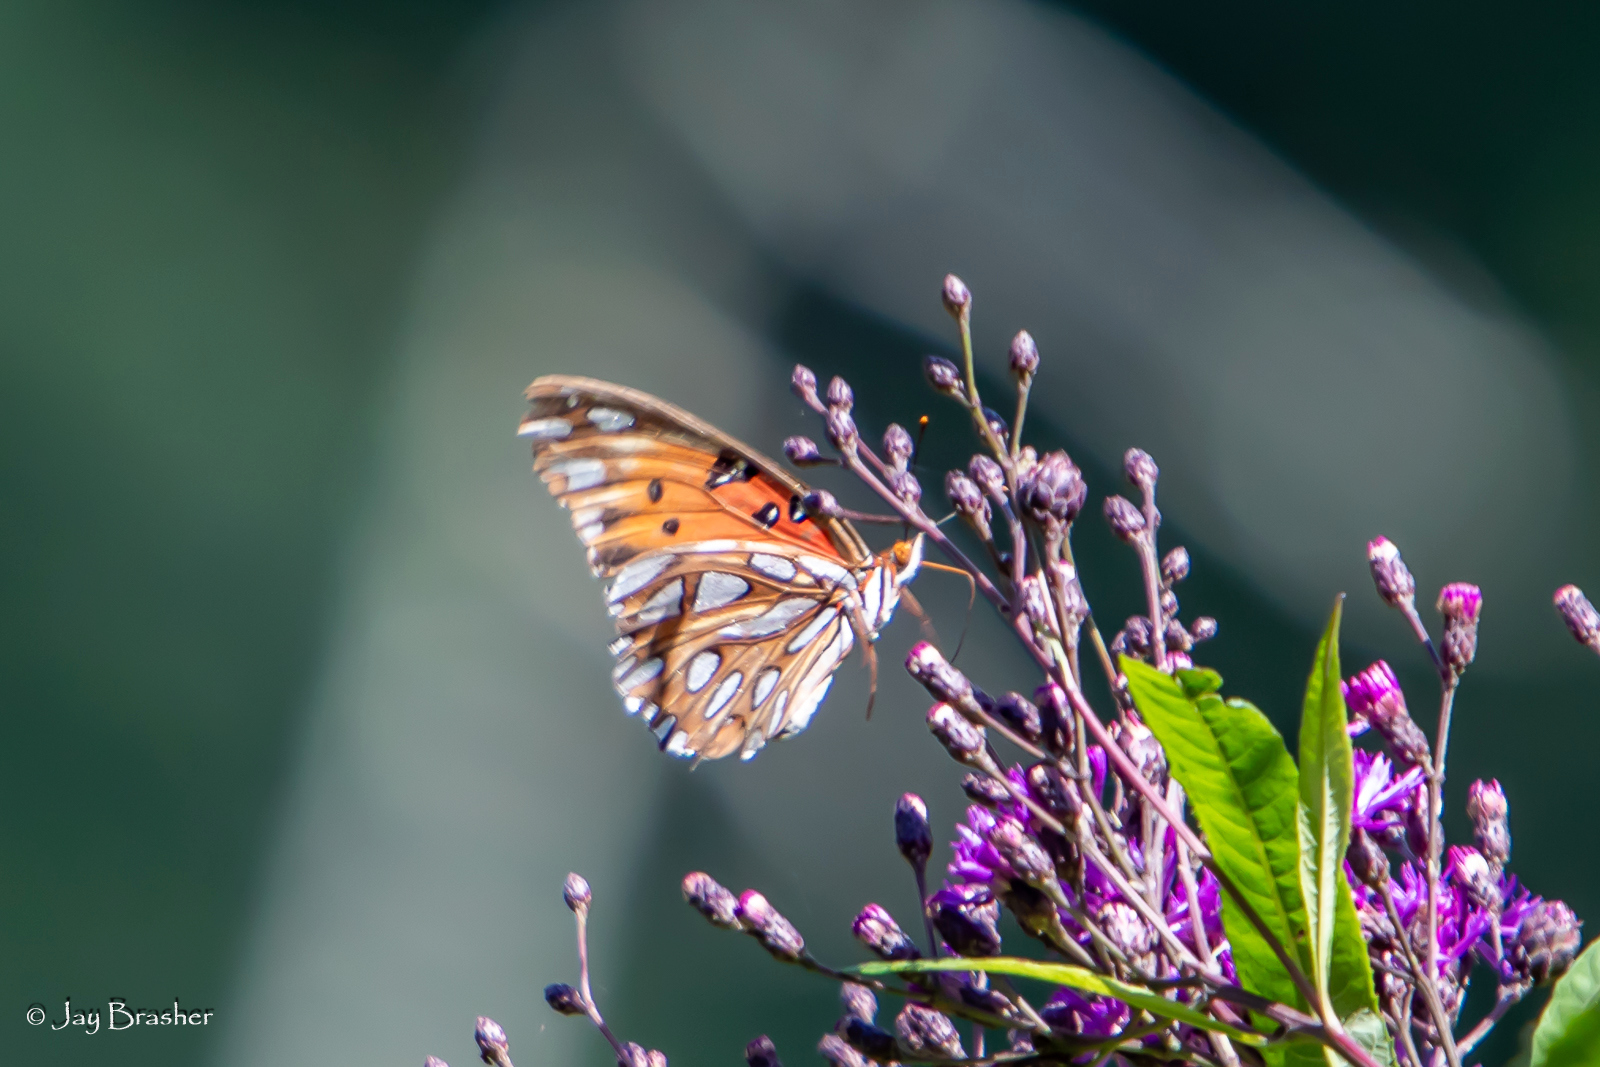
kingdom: Animalia
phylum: Arthropoda
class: Insecta
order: Lepidoptera
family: Nymphalidae
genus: Dione
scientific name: Dione vanillae
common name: Gulf fritillary
